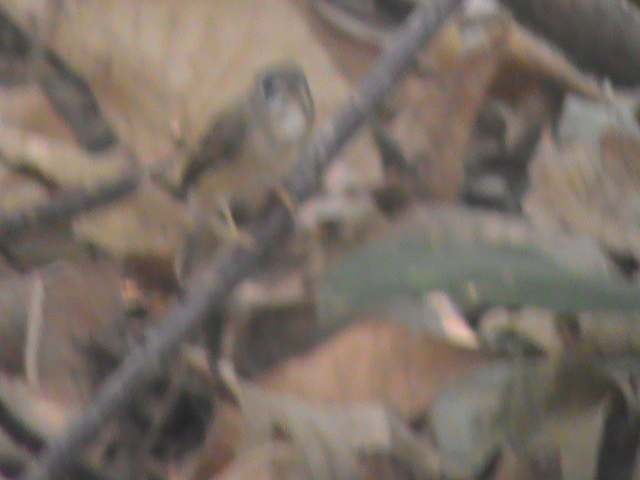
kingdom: Animalia
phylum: Chordata
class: Aves
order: Passeriformes
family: Muscicapidae
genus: Muscicapa
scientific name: Muscicapa muttui
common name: Brown-breasted flycatcher
